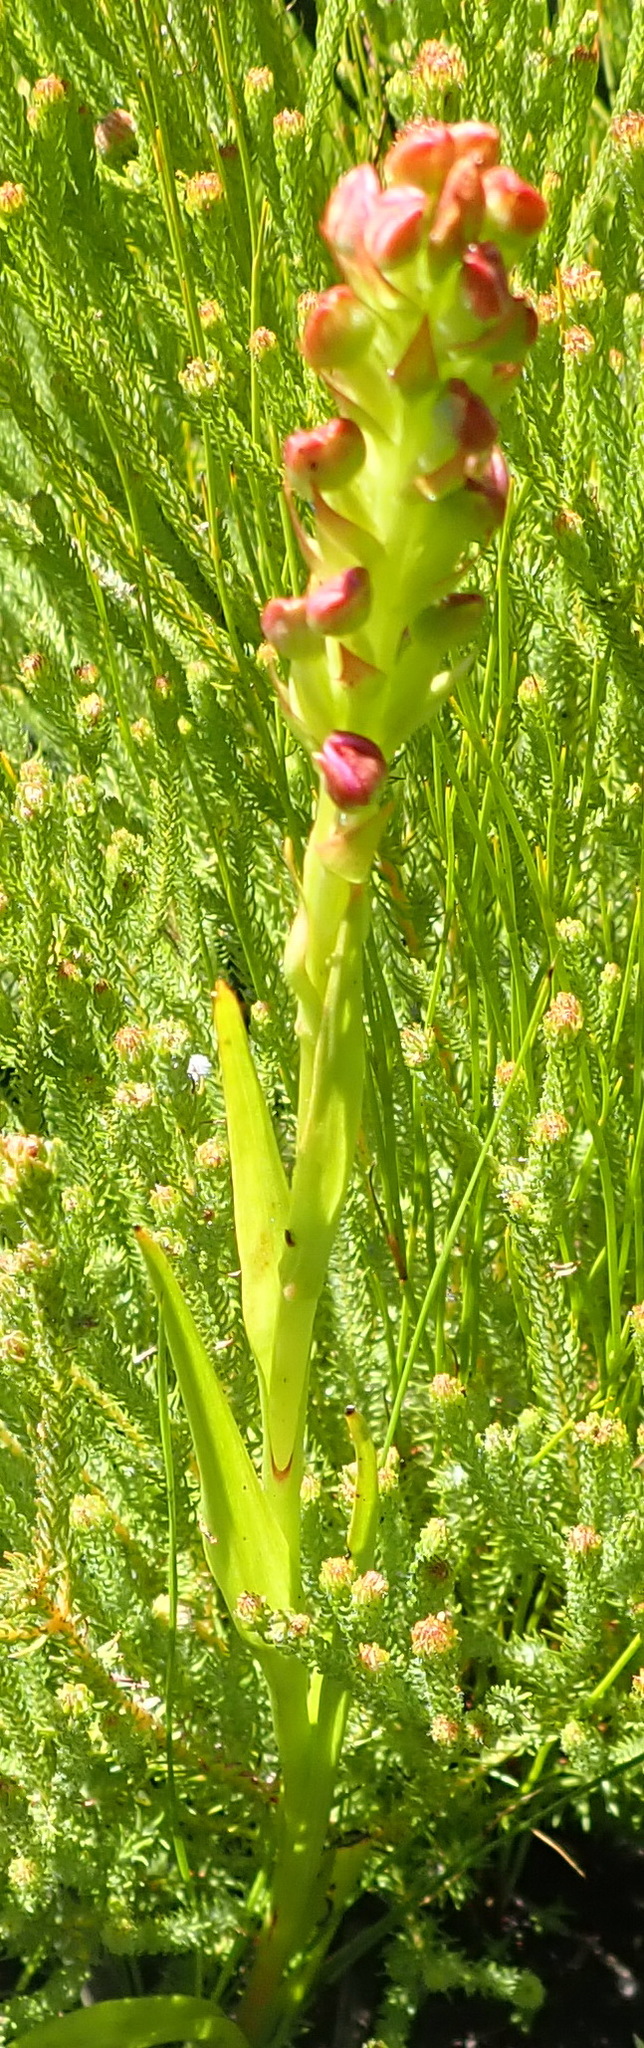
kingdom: Plantae
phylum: Tracheophyta
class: Liliopsida
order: Asparagales
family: Orchidaceae
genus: Evotella
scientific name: Evotella carnosa
